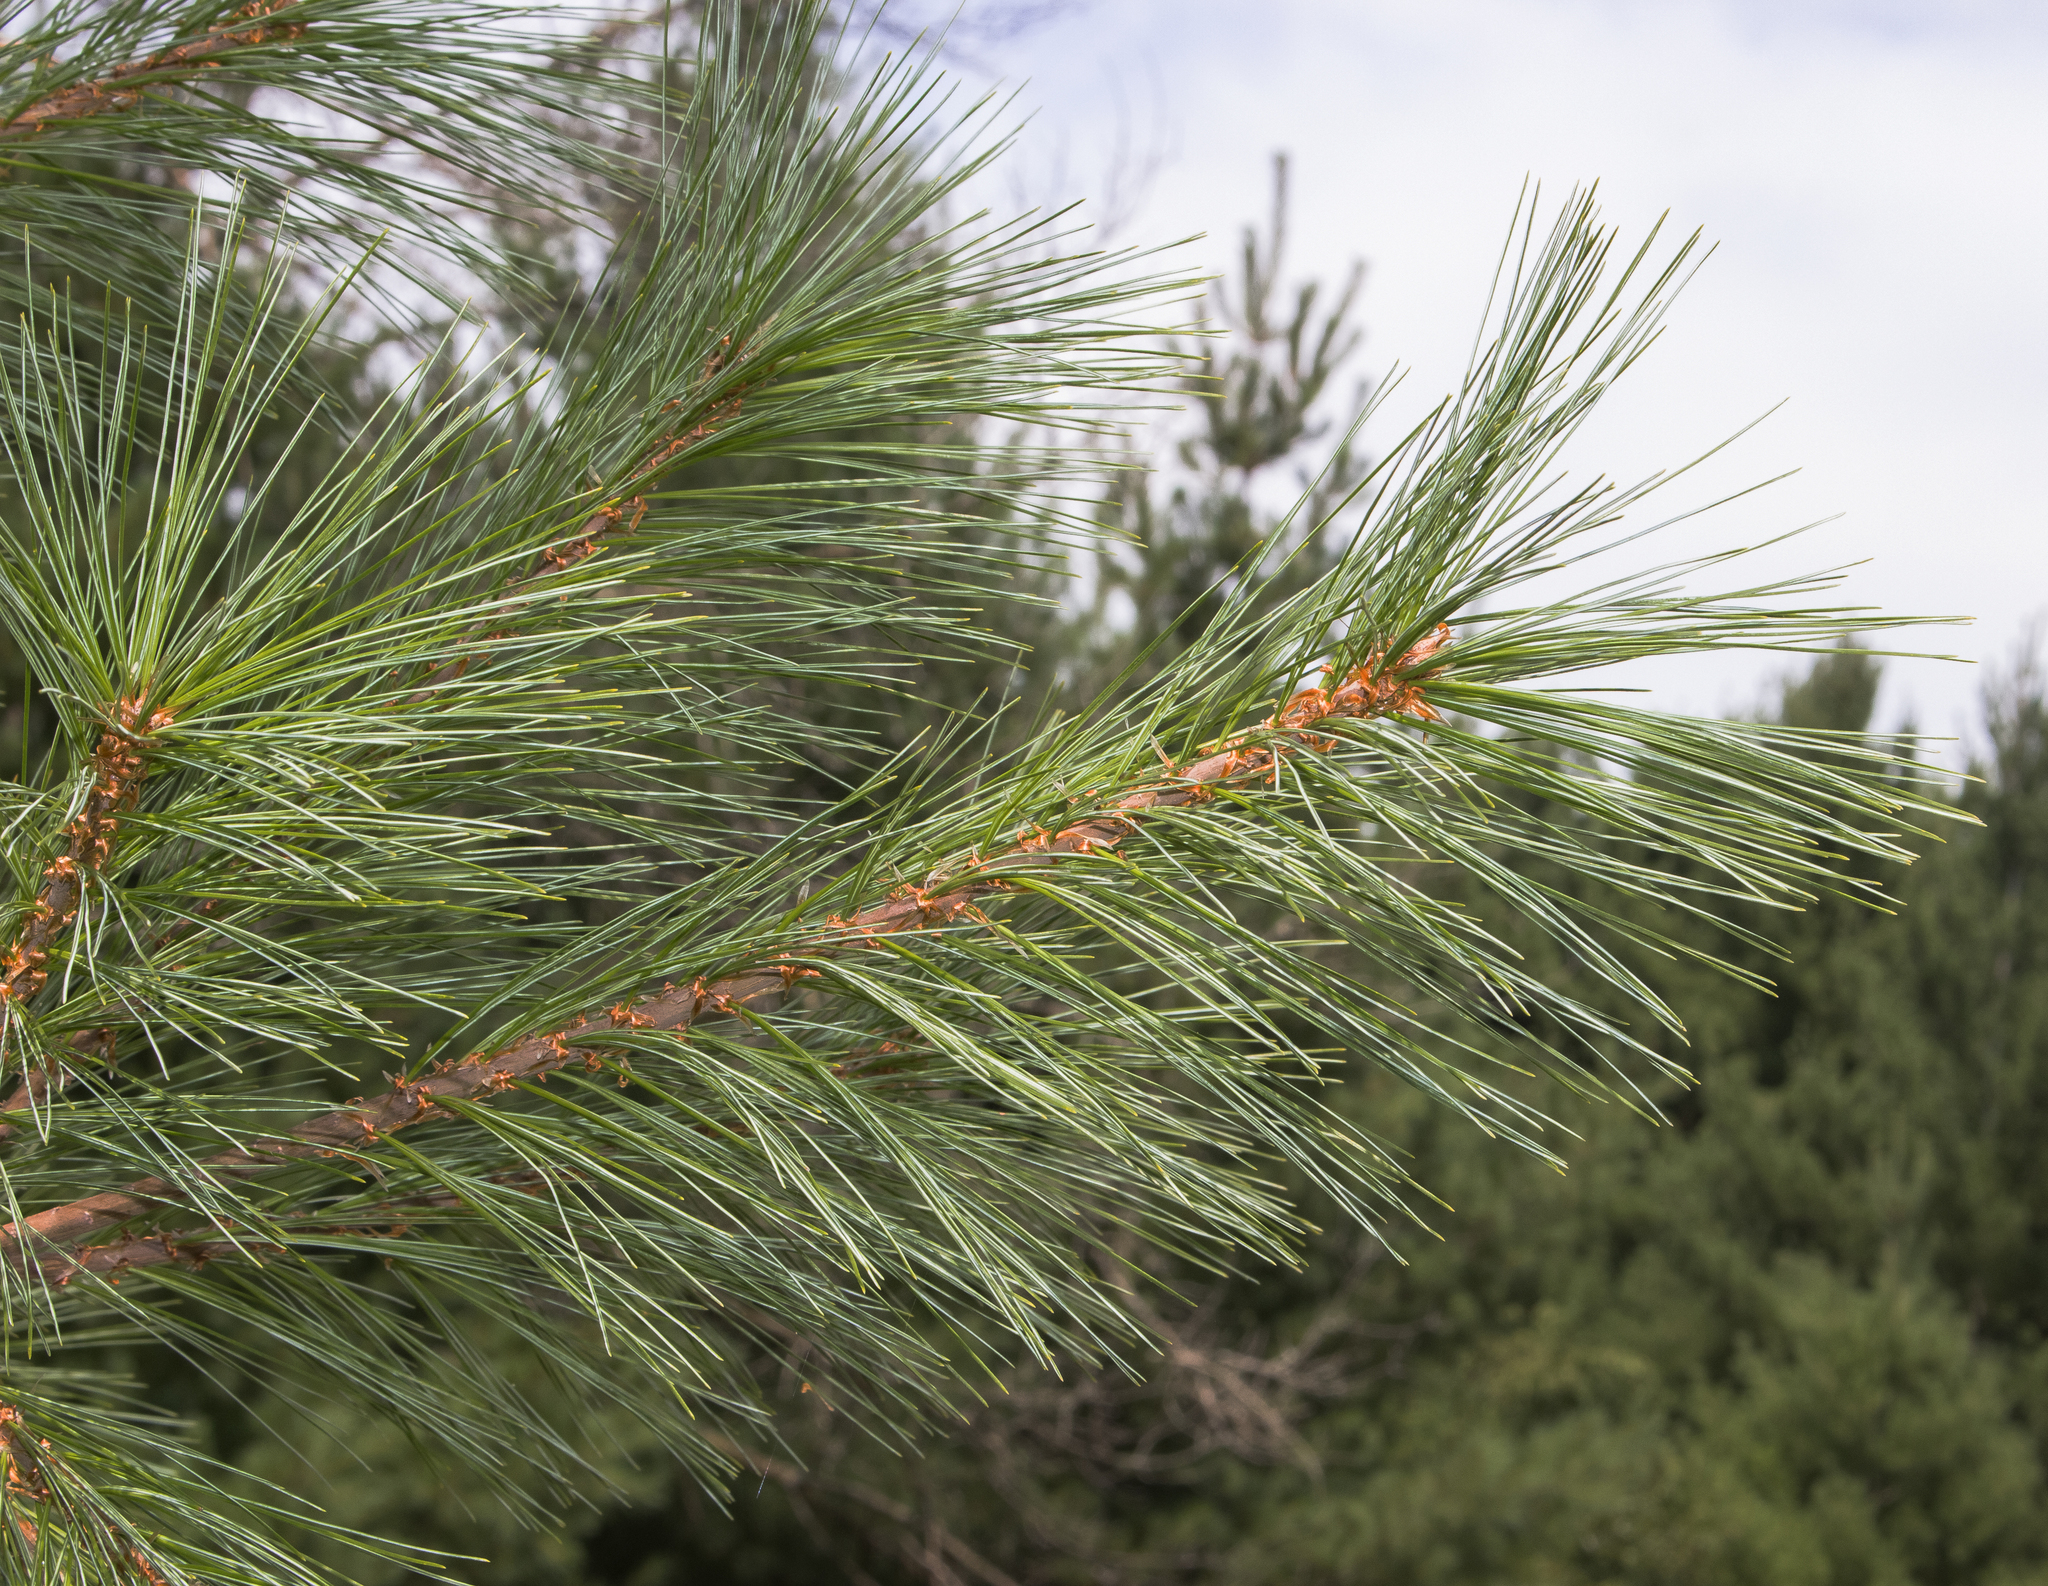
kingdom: Plantae
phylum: Tracheophyta
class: Pinopsida
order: Pinales
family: Pinaceae
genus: Pinus
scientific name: Pinus strobus
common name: Weymouth pine
